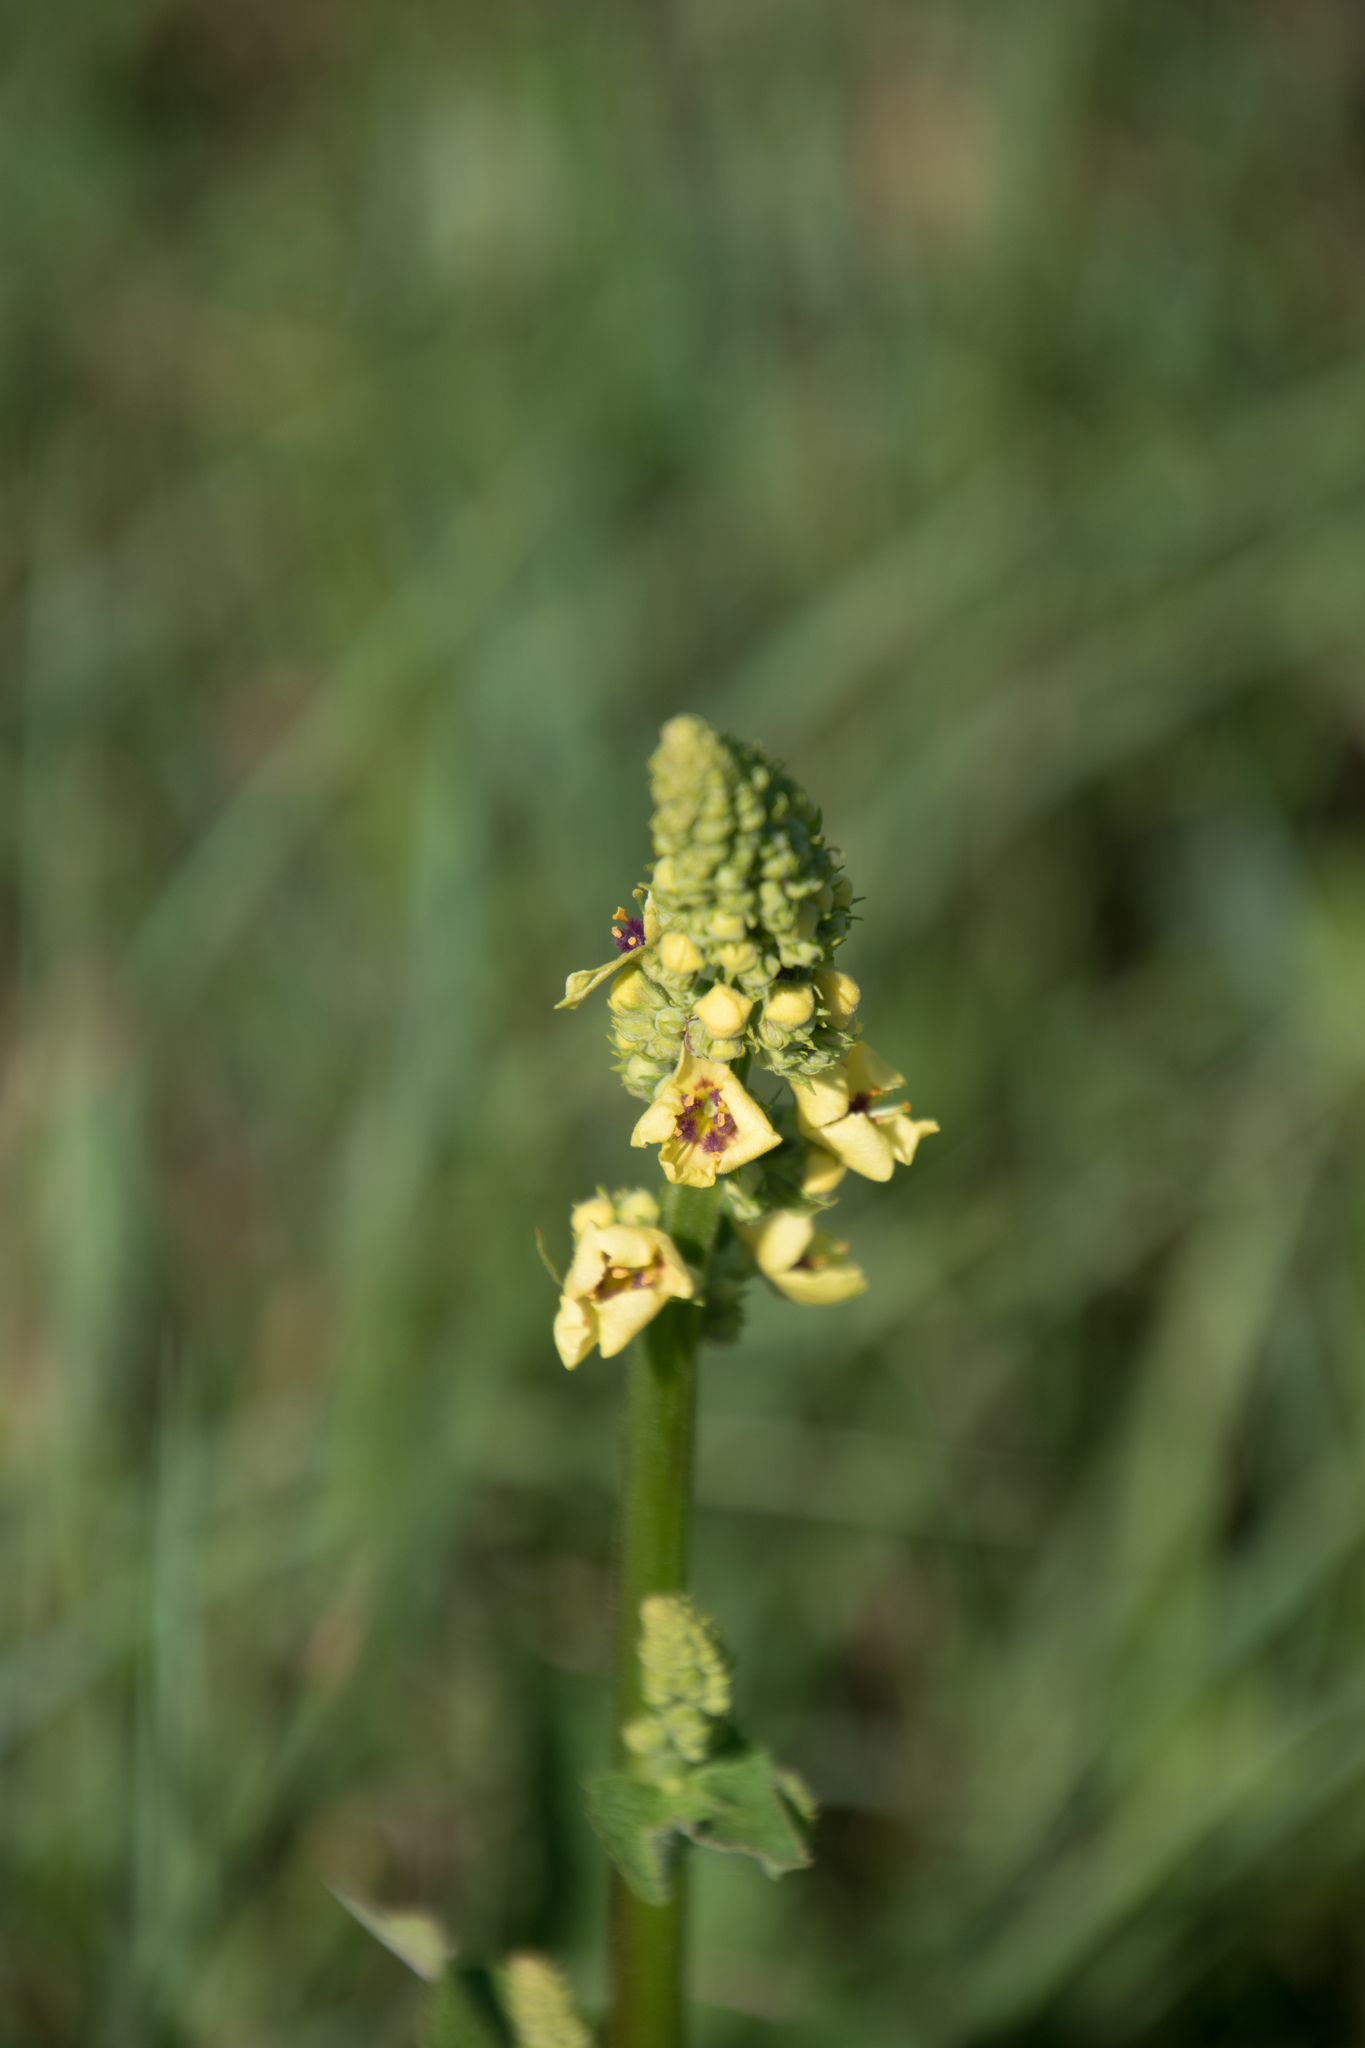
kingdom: Plantae
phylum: Tracheophyta
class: Magnoliopsida
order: Lamiales
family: Scrophulariaceae
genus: Verbascum
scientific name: Verbascum nigrum
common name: Dark mullein
